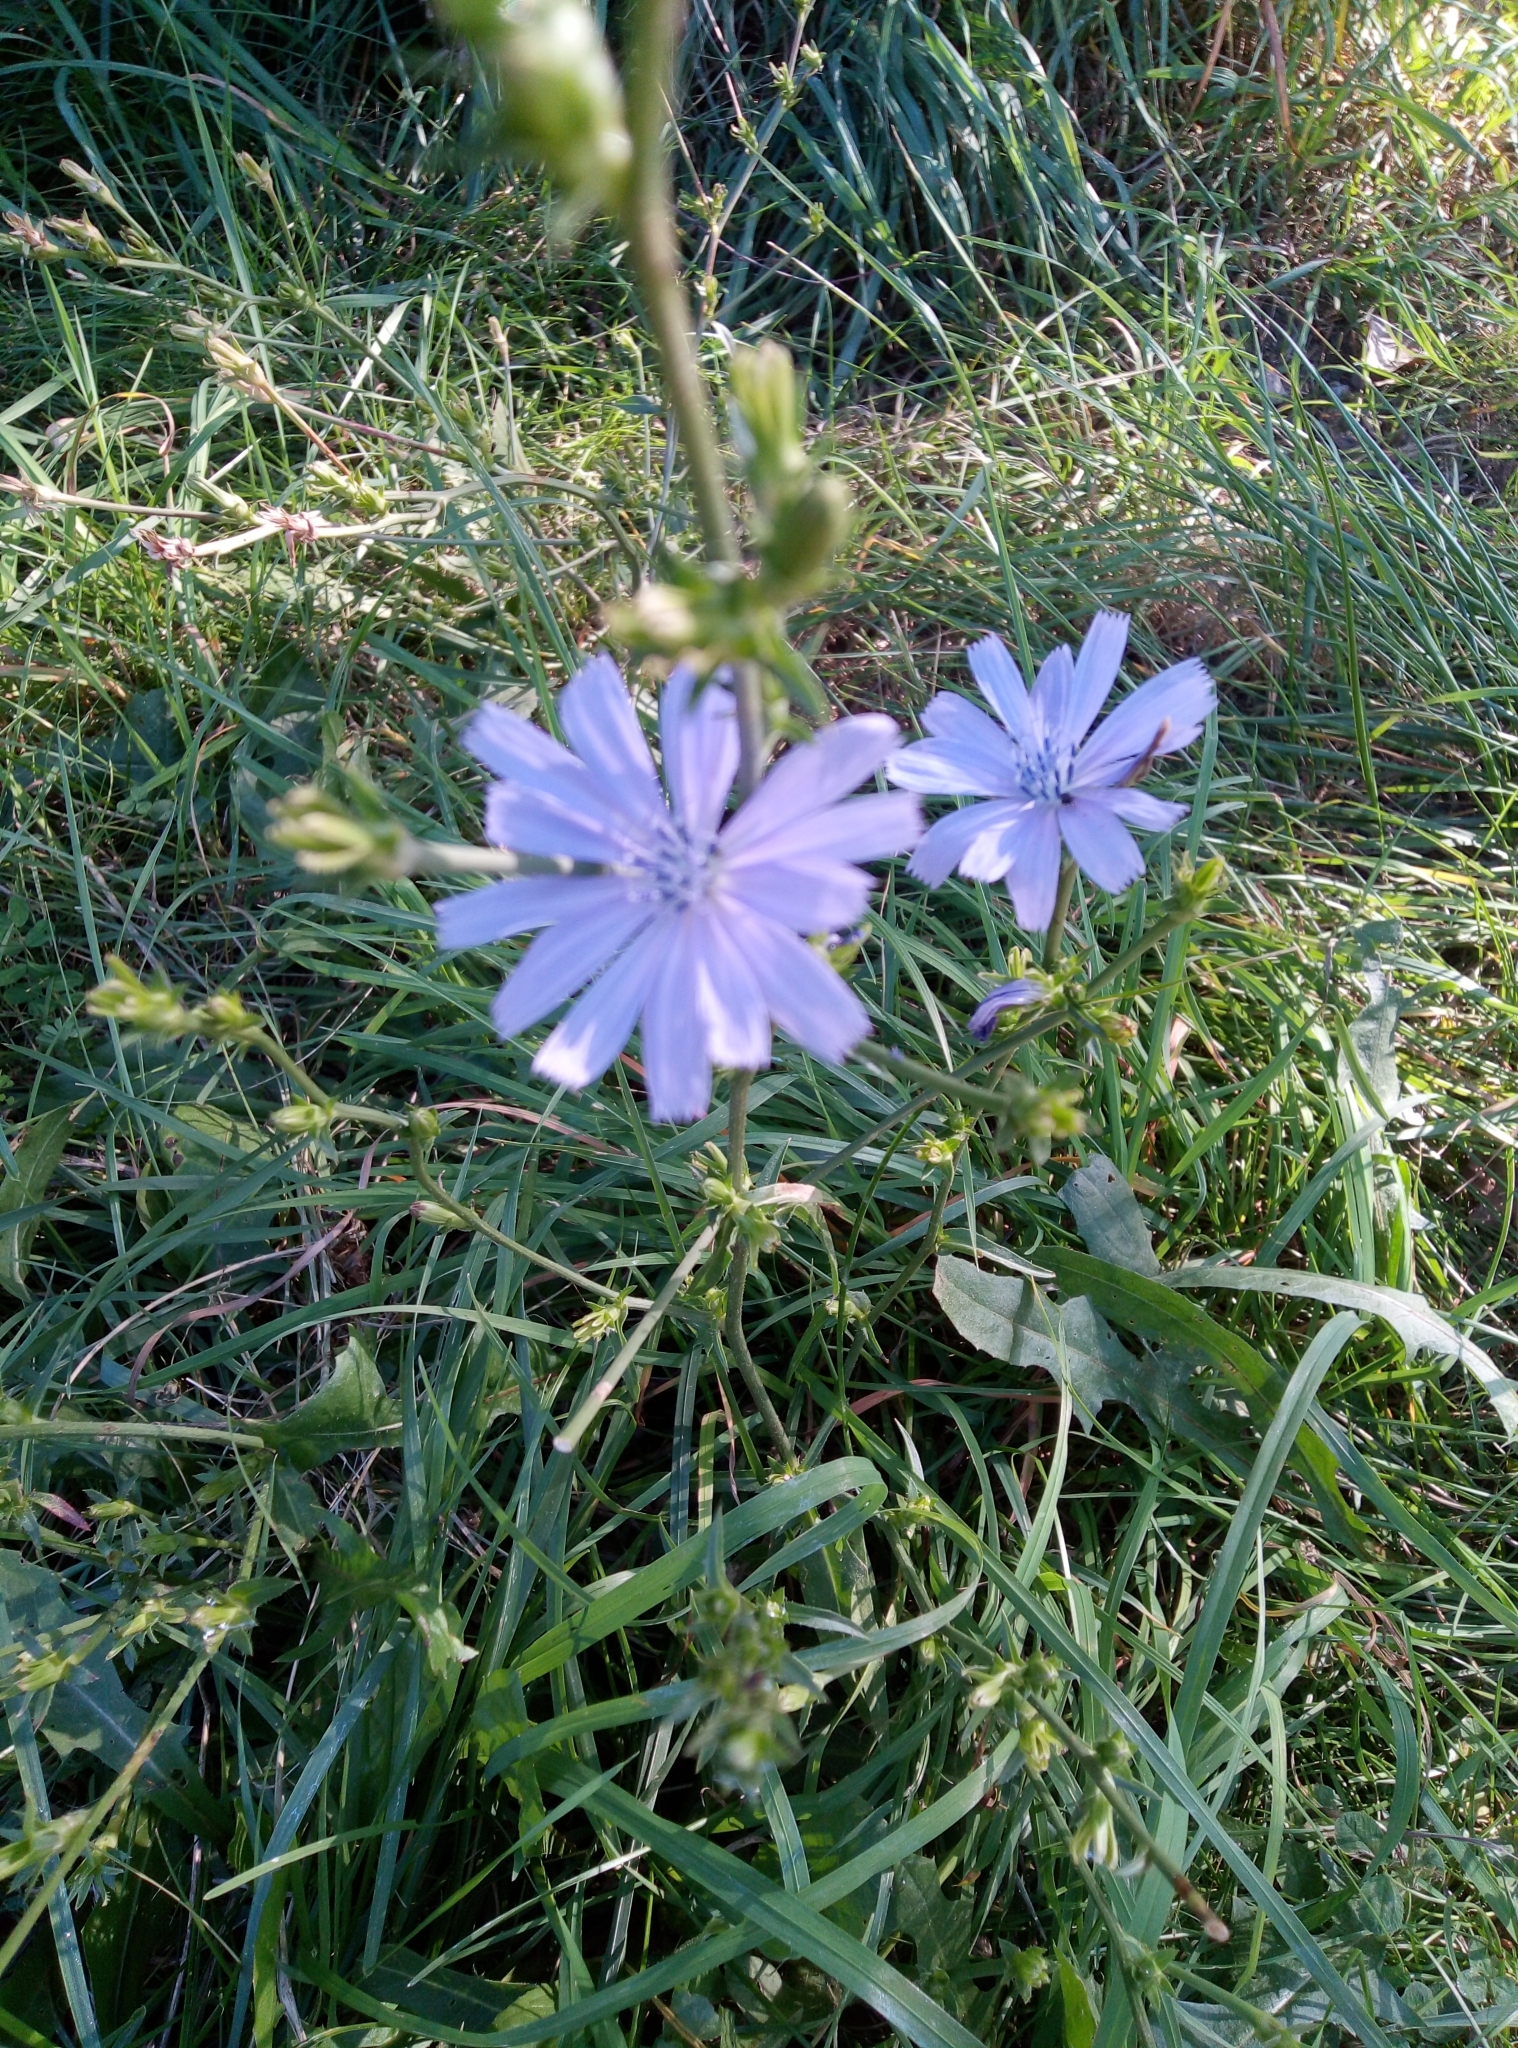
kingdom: Plantae
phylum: Tracheophyta
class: Magnoliopsida
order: Asterales
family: Asteraceae
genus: Cichorium
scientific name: Cichorium intybus
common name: Chicory
